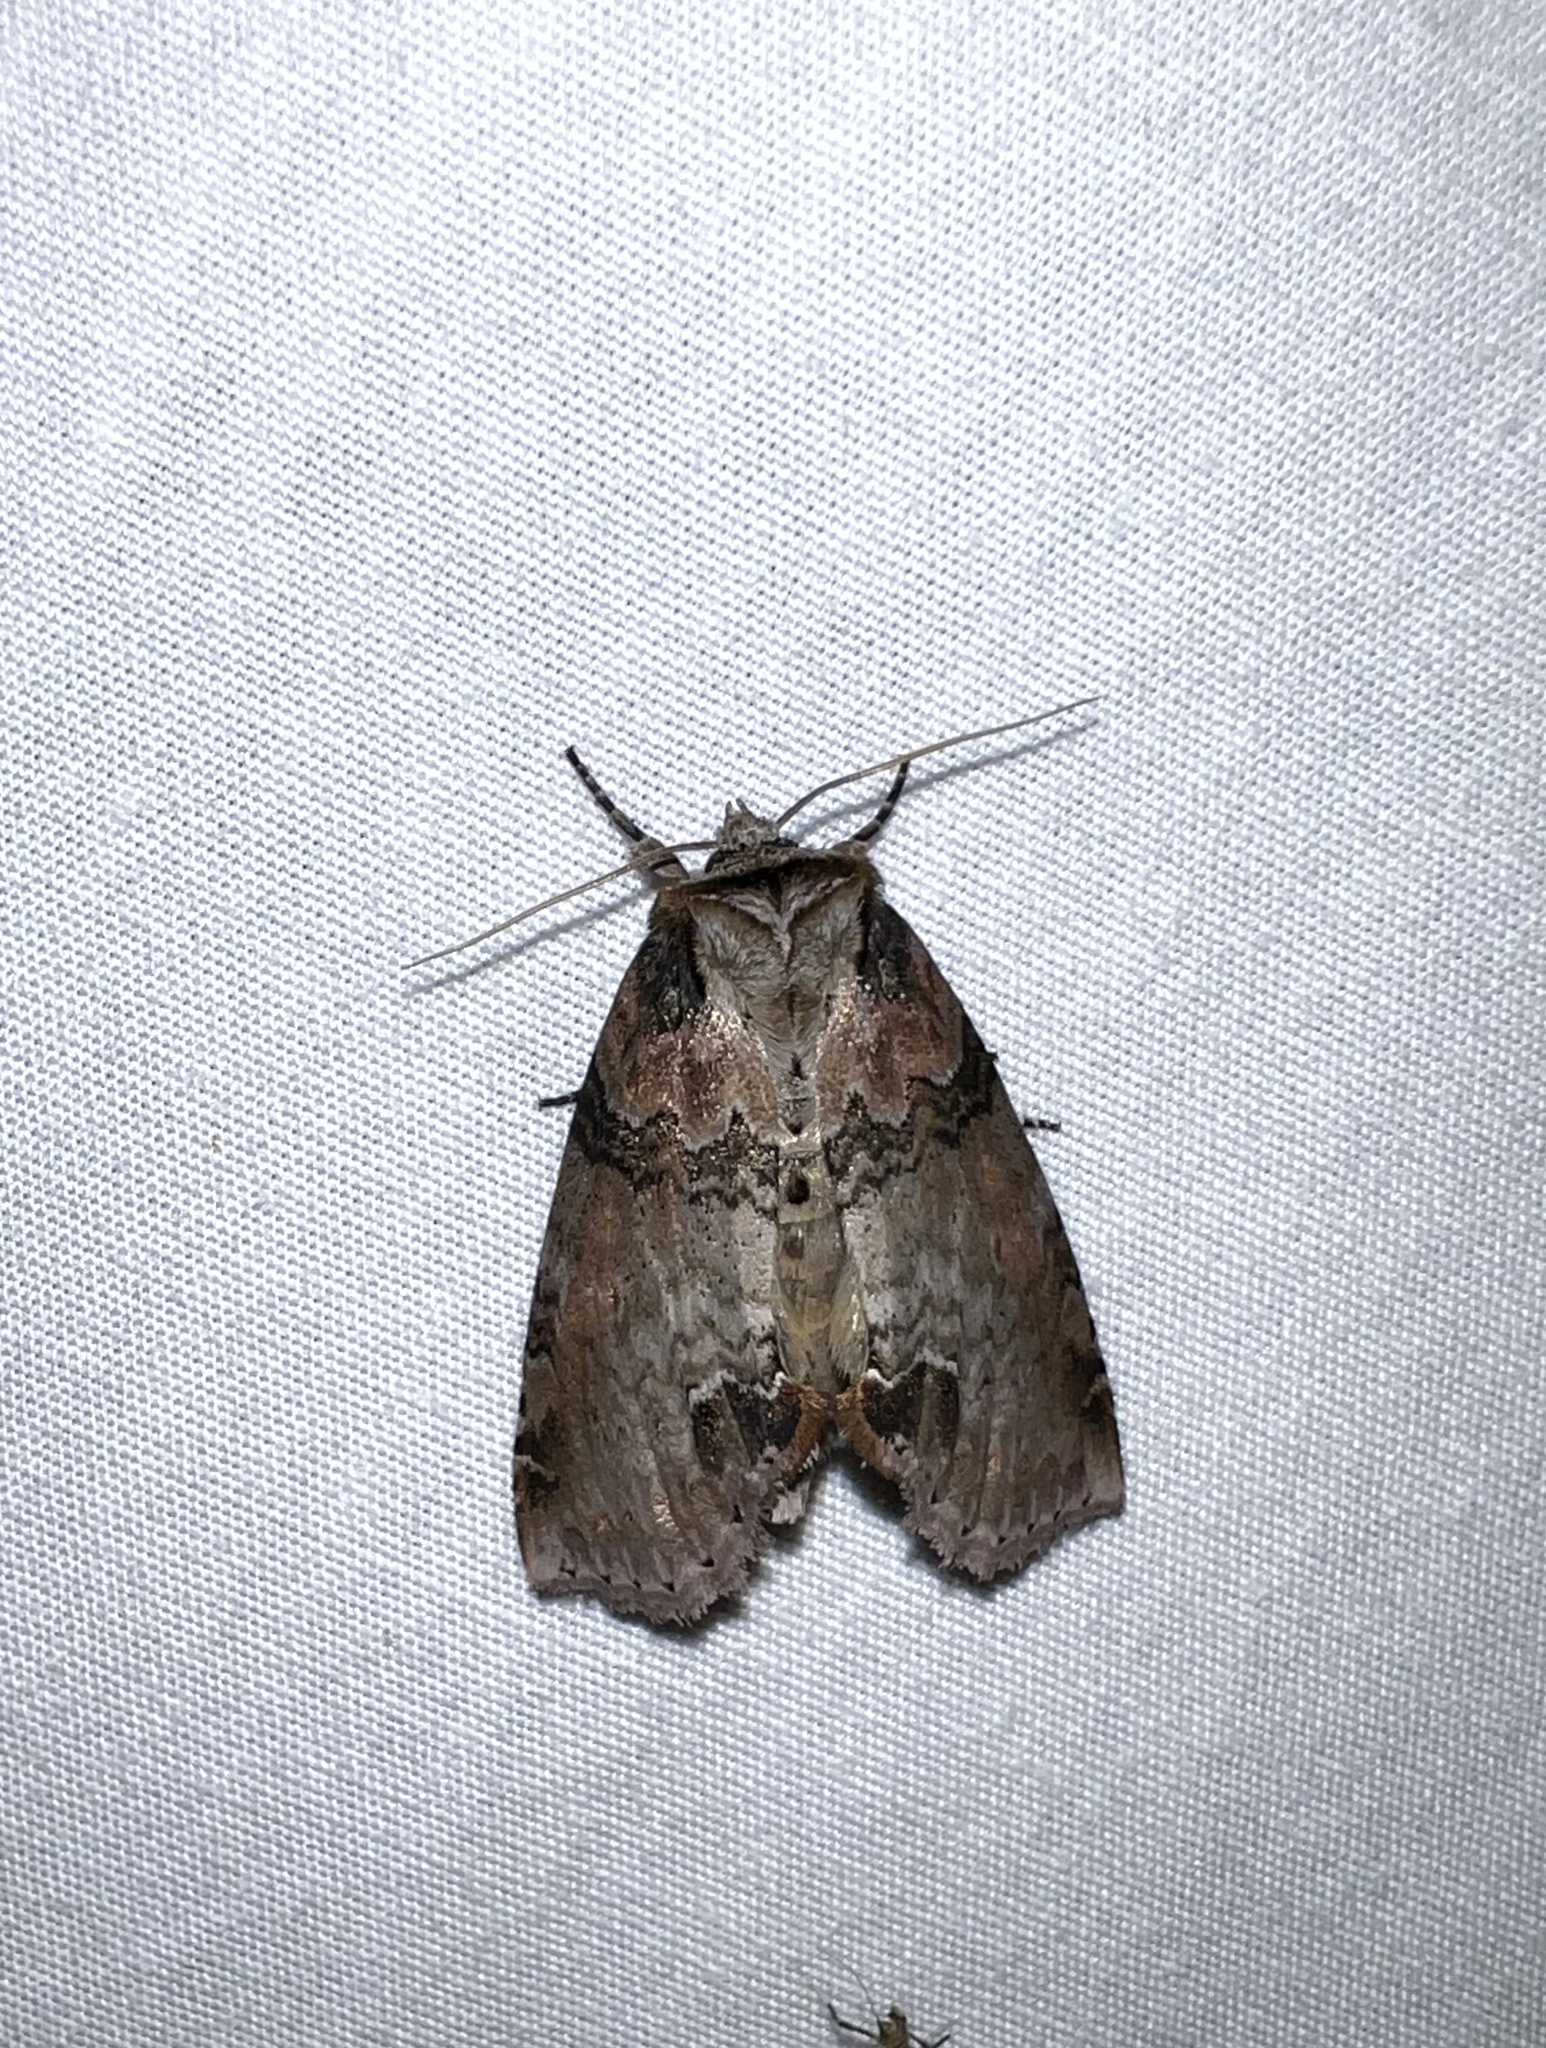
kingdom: Animalia
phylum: Arthropoda
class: Insecta
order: Lepidoptera
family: Drepanidae
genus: Pseudothyatira
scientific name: Pseudothyatira cymatophoroides
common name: Tufted thyatirid moth
